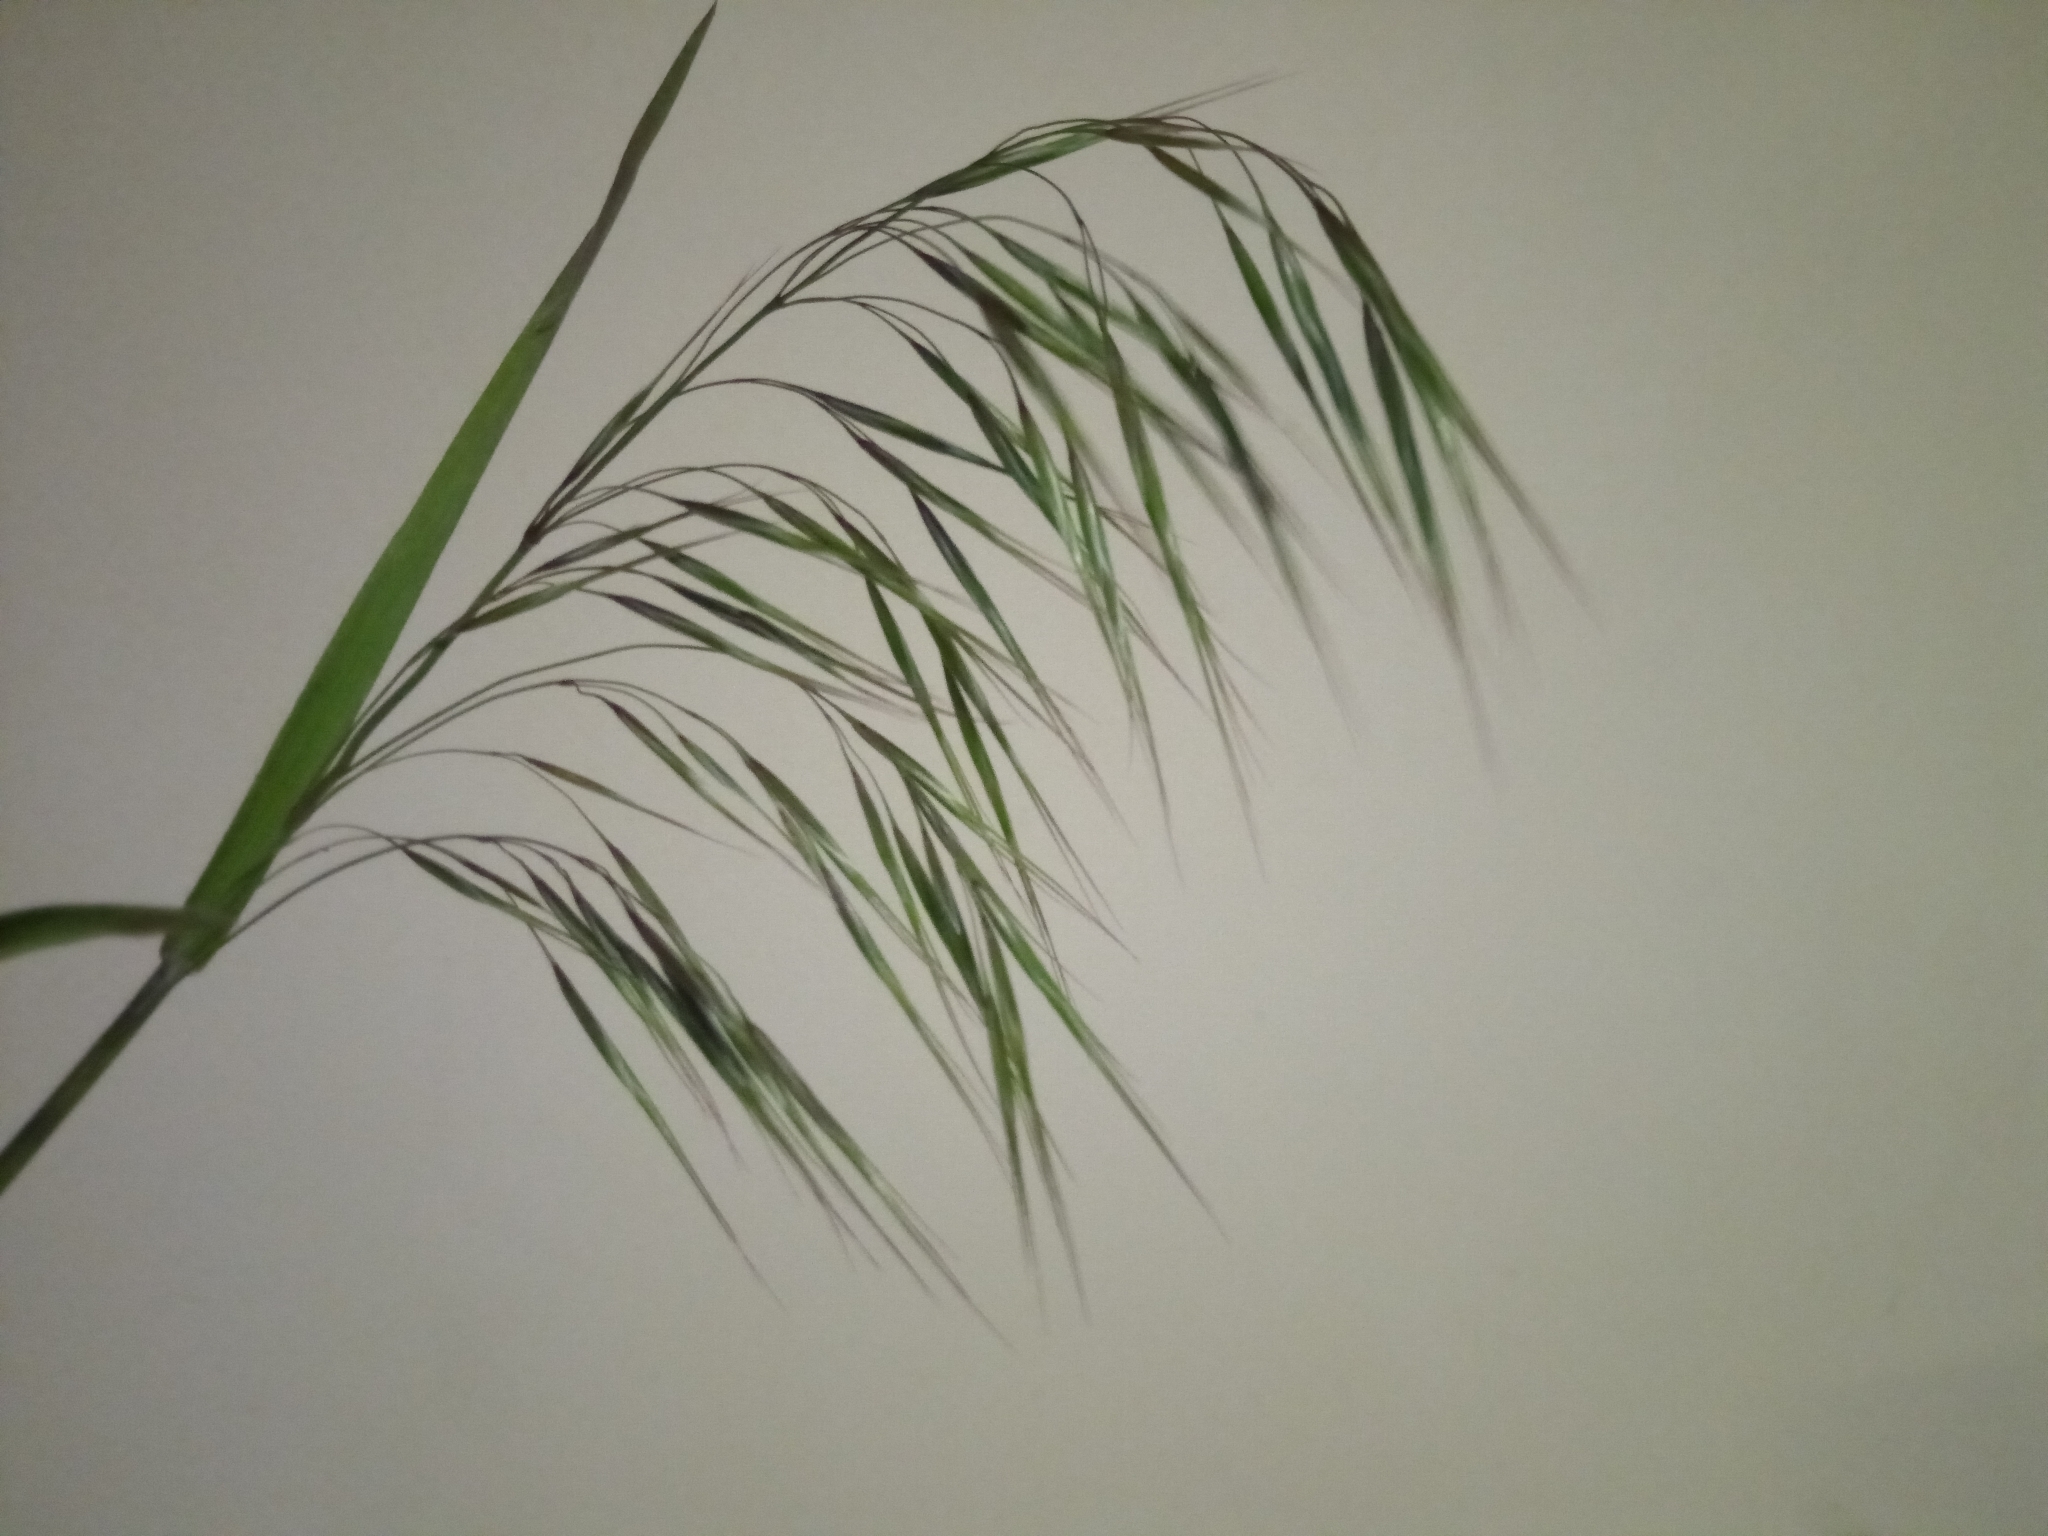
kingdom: Plantae
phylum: Tracheophyta
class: Liliopsida
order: Poales
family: Poaceae
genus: Bromus
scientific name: Bromus tectorum
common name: Cheatgrass
